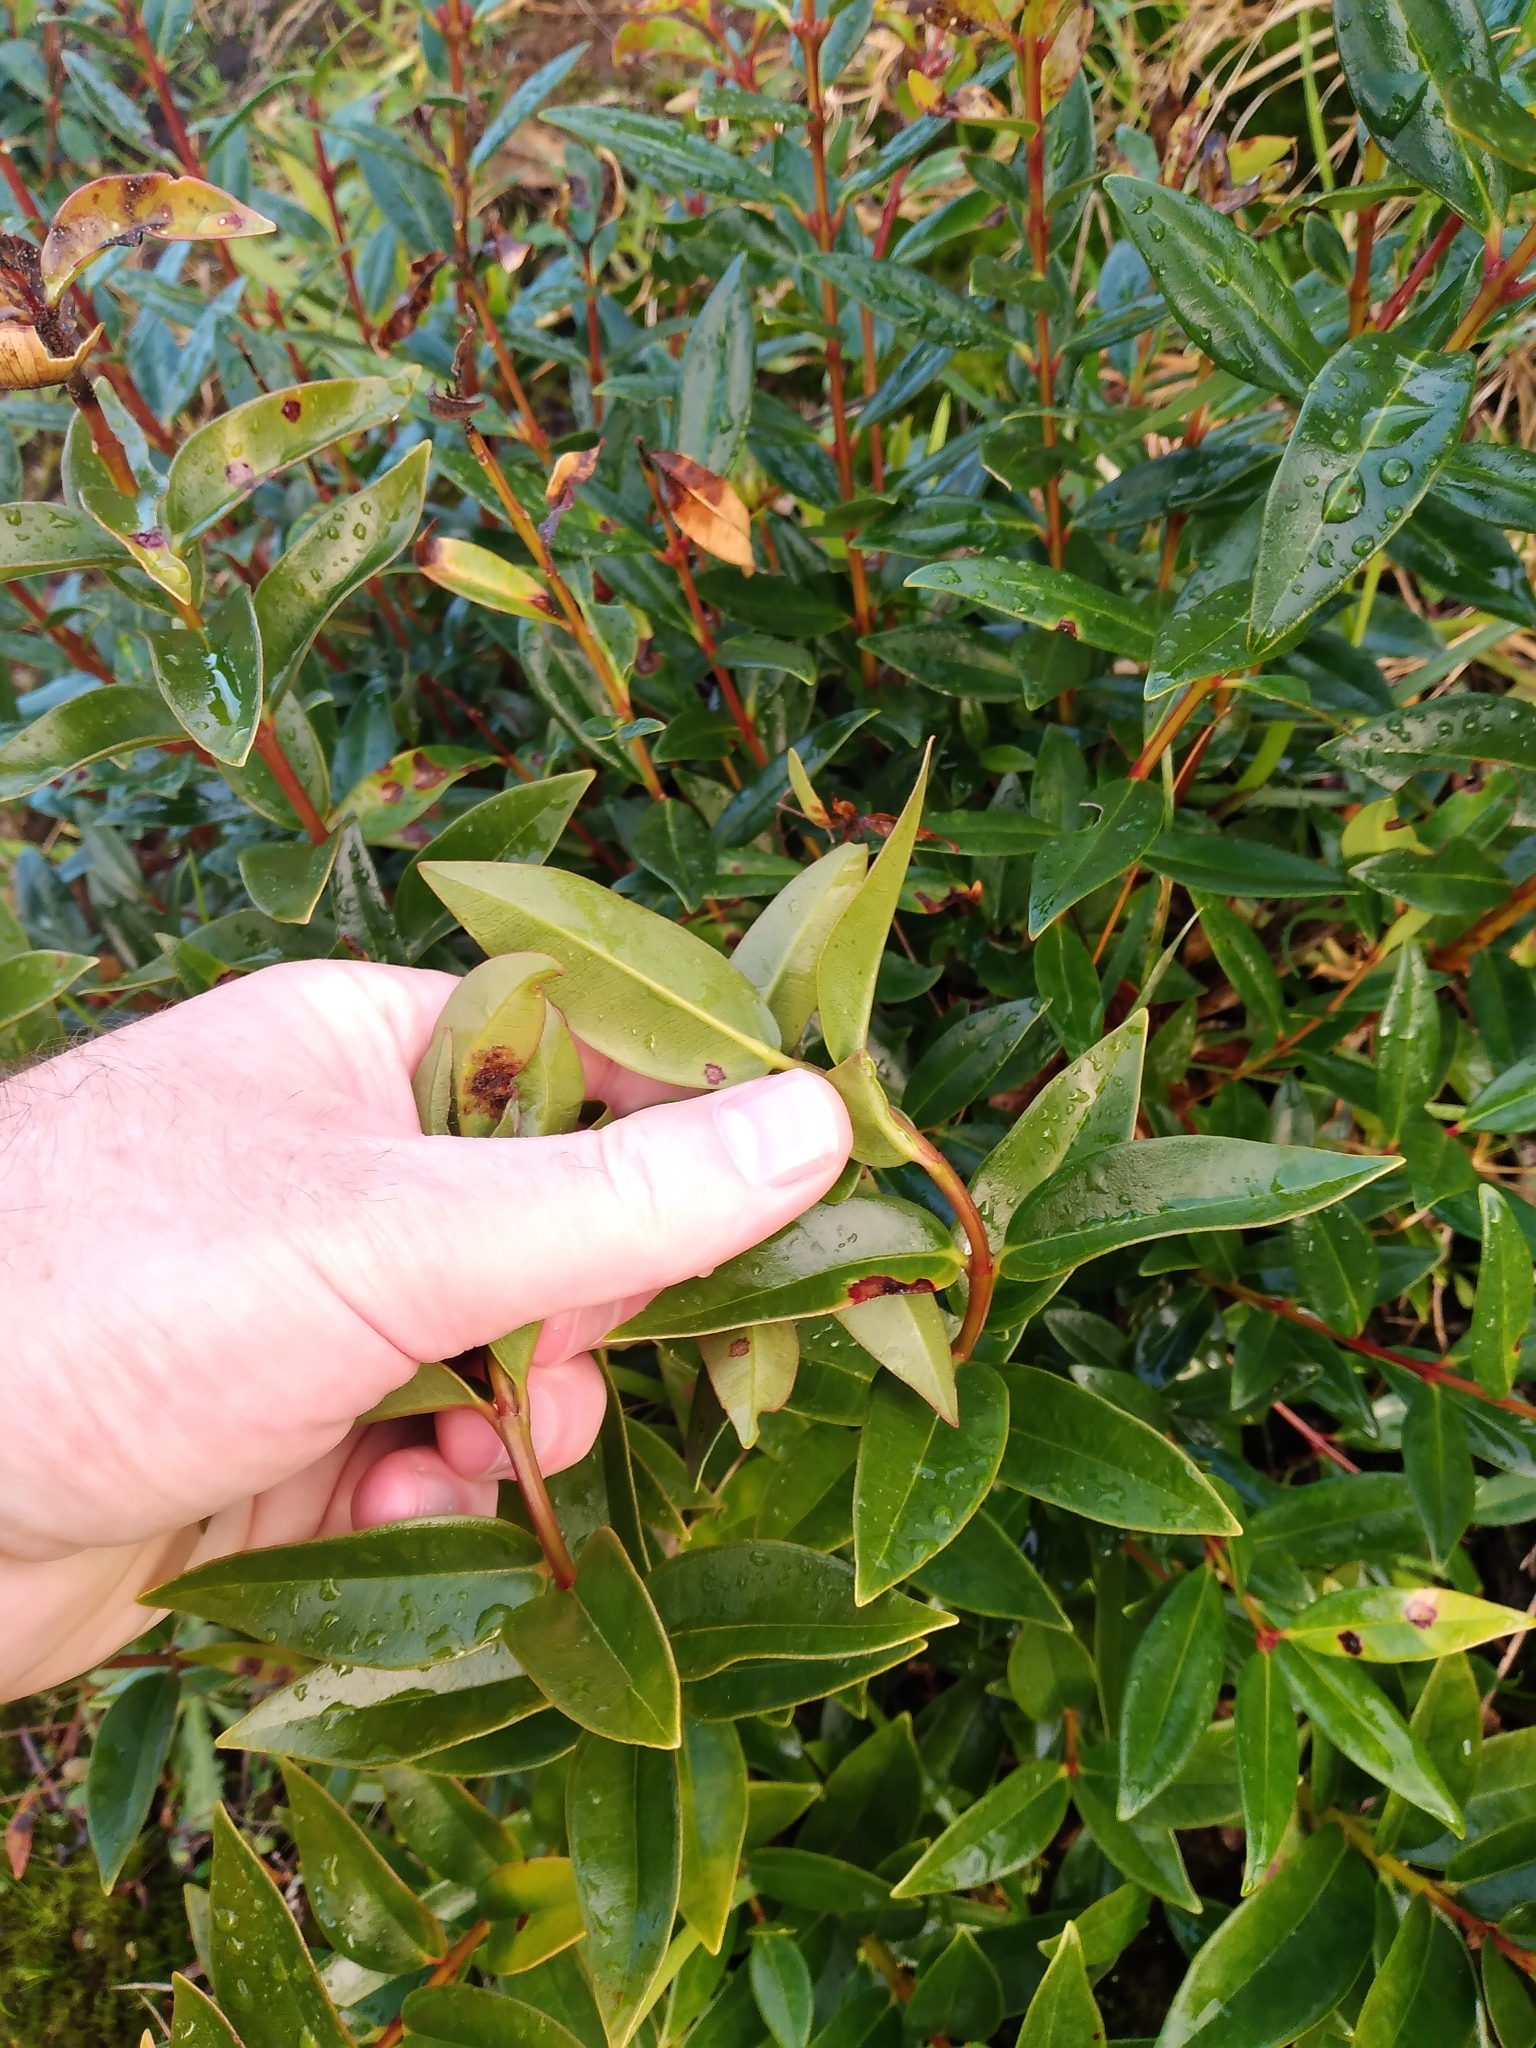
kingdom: Plantae
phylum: Tracheophyta
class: Magnoliopsida
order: Myrtales
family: Myrtaceae
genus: Metrosideros
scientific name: Metrosideros excelsa
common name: New zealand christmastree
